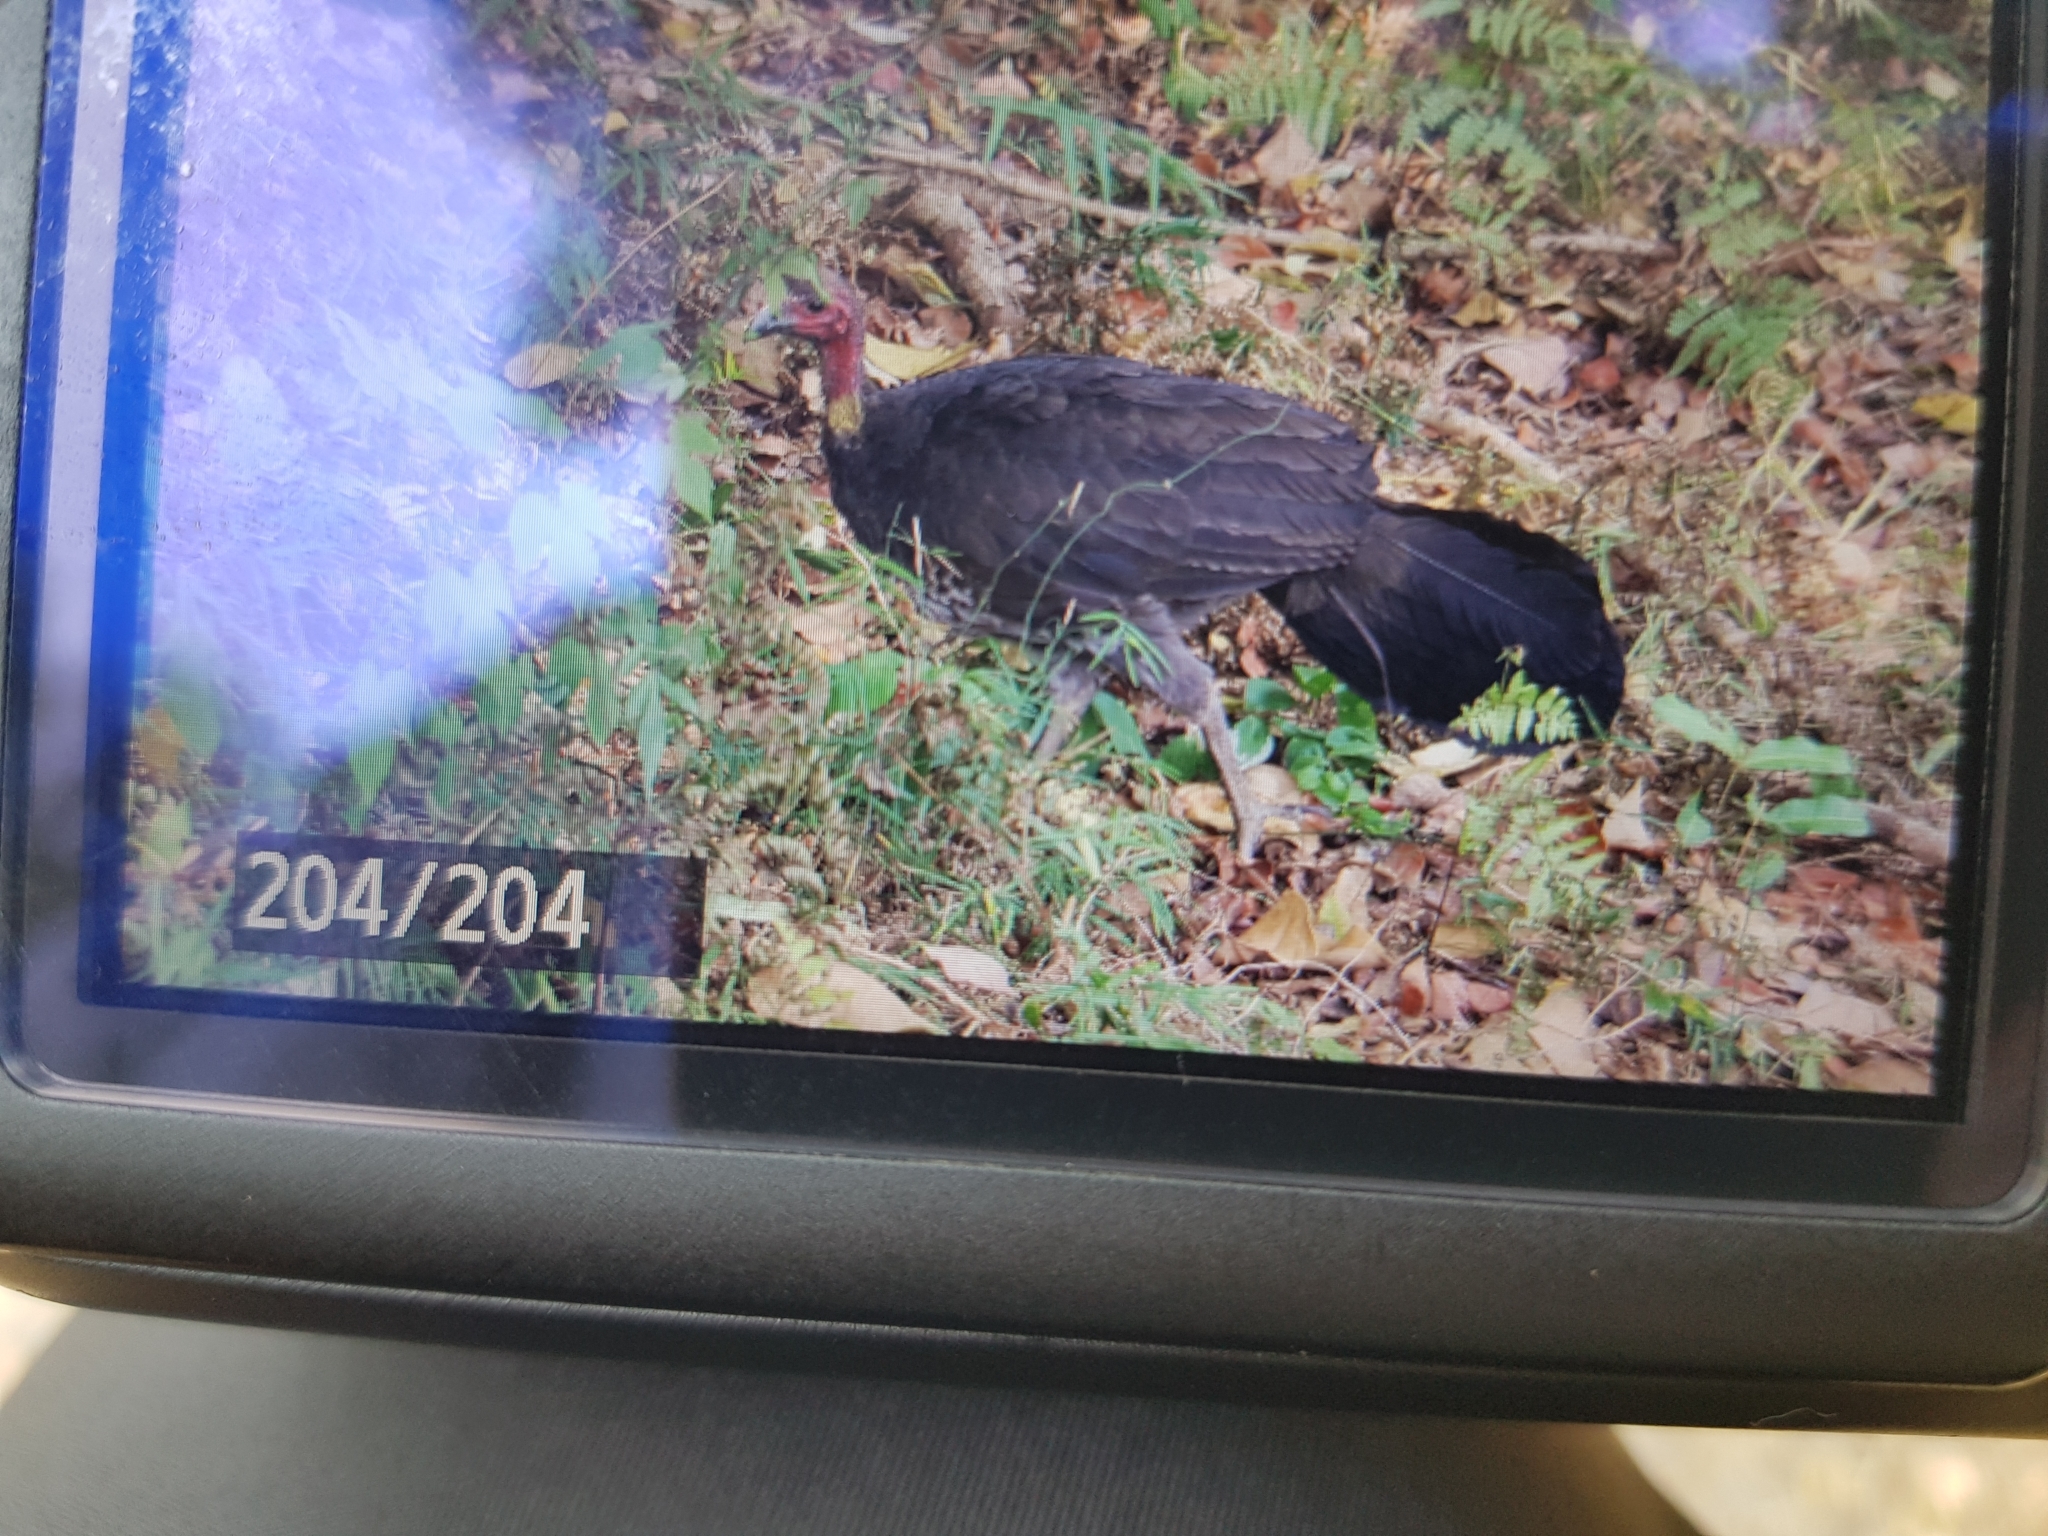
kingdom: Animalia
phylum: Chordata
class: Aves
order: Galliformes
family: Megapodiidae
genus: Alectura
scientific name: Alectura lathami
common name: Australian brushturkey
